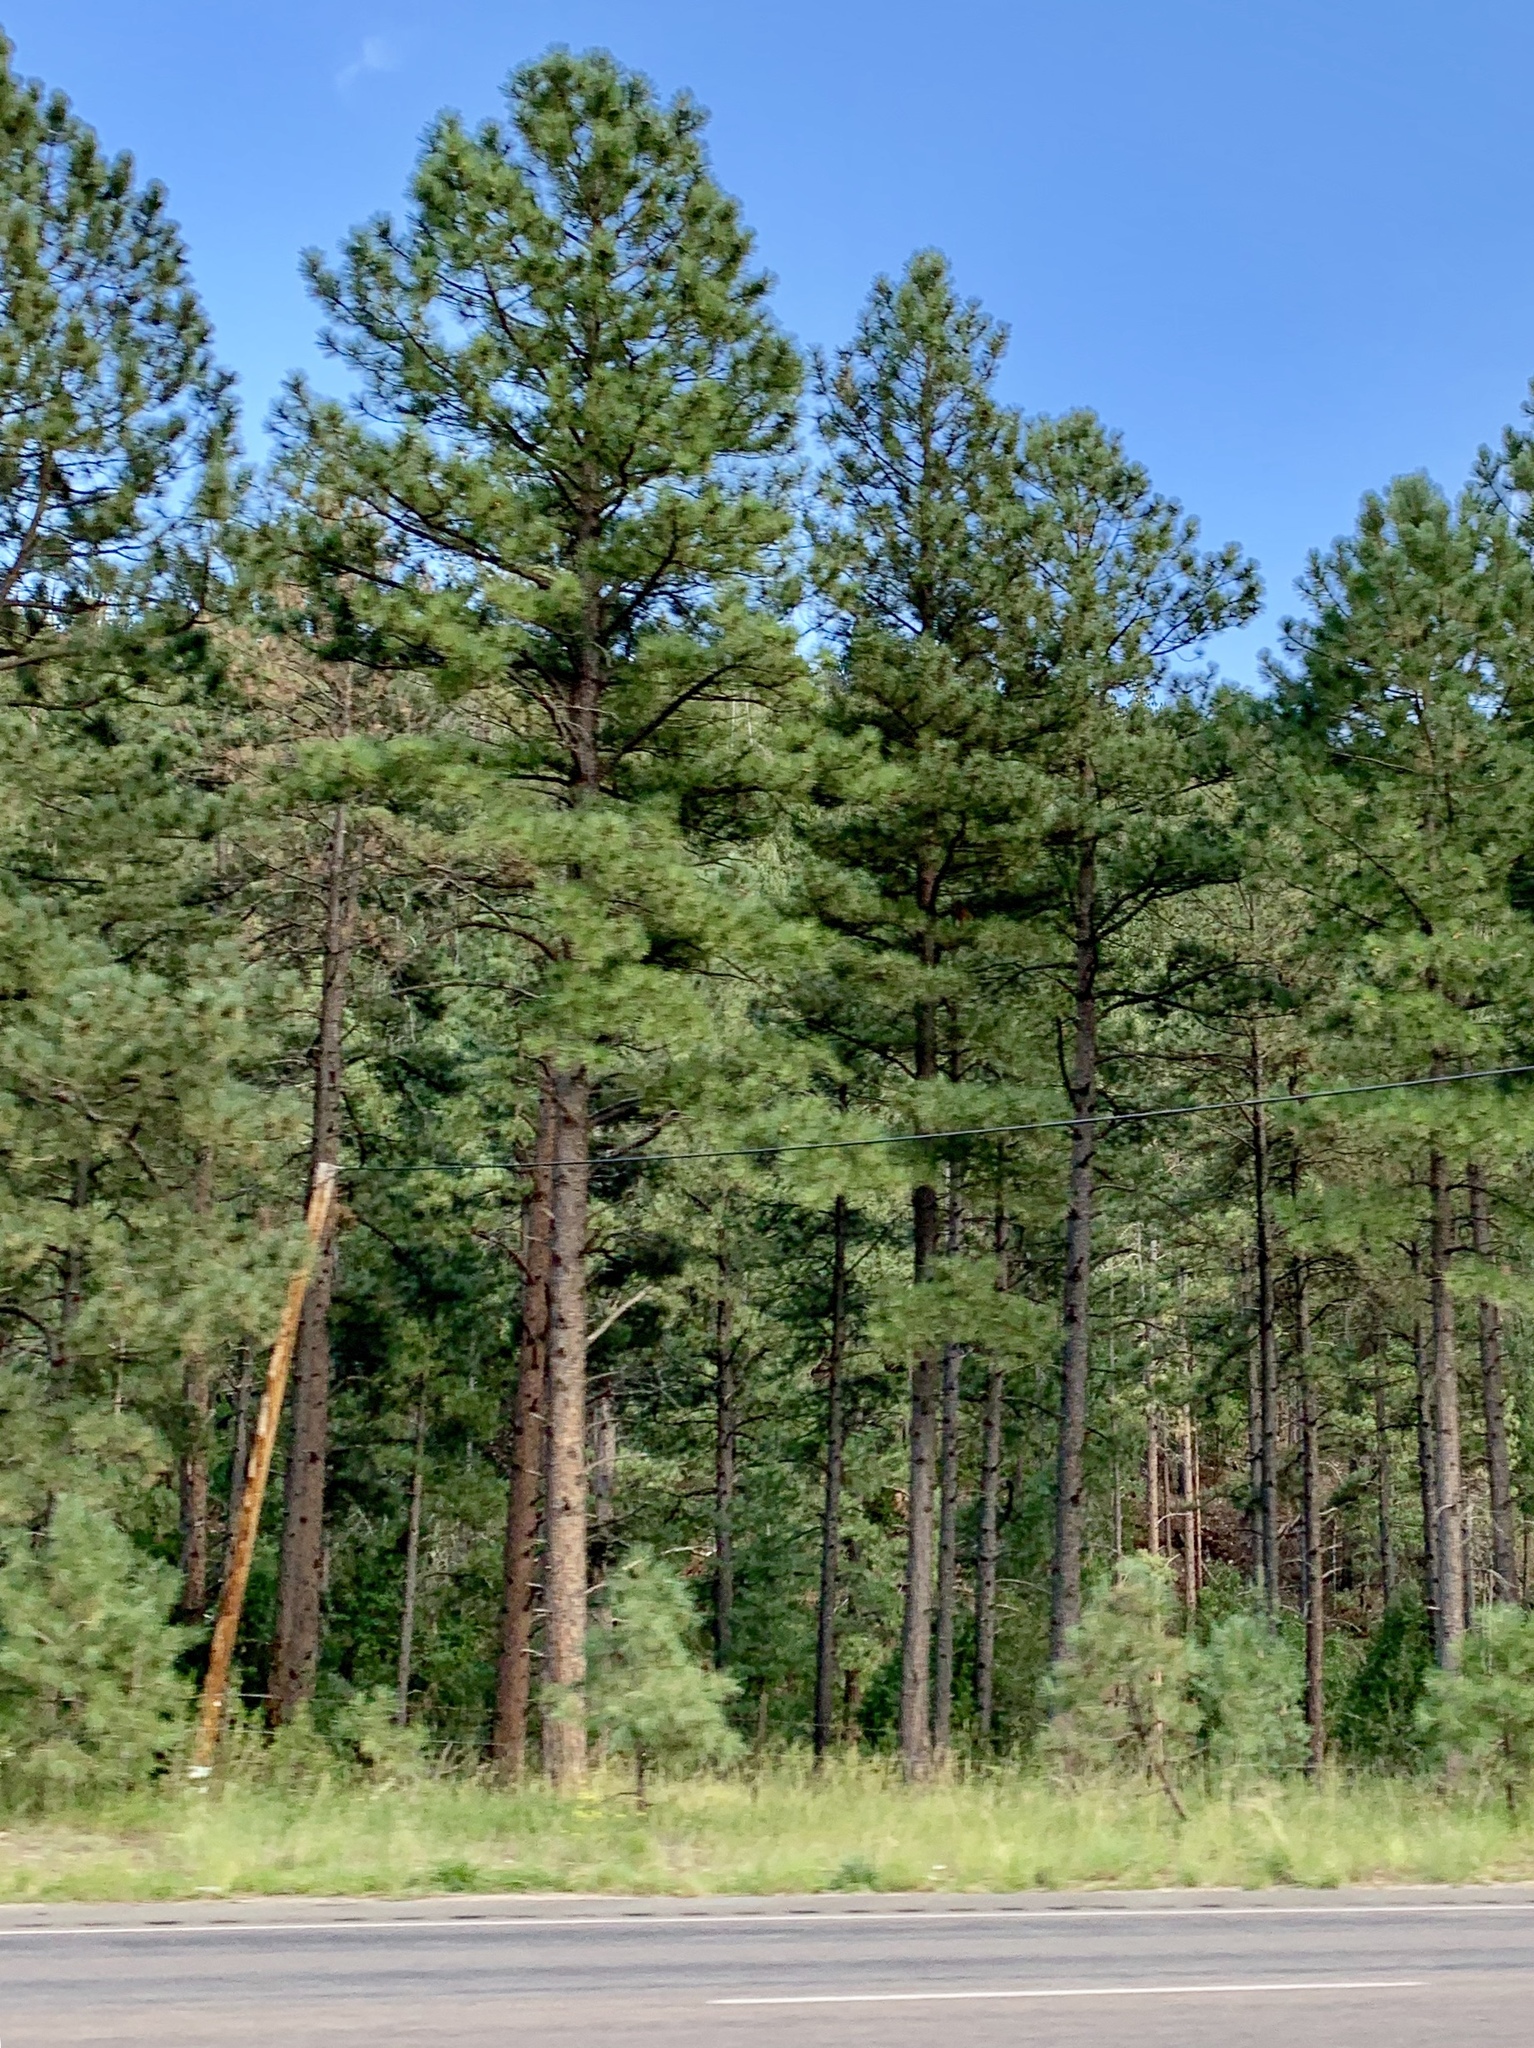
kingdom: Plantae
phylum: Tracheophyta
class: Pinopsida
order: Pinales
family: Pinaceae
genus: Pinus
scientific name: Pinus ponderosa
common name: Western yellow-pine
